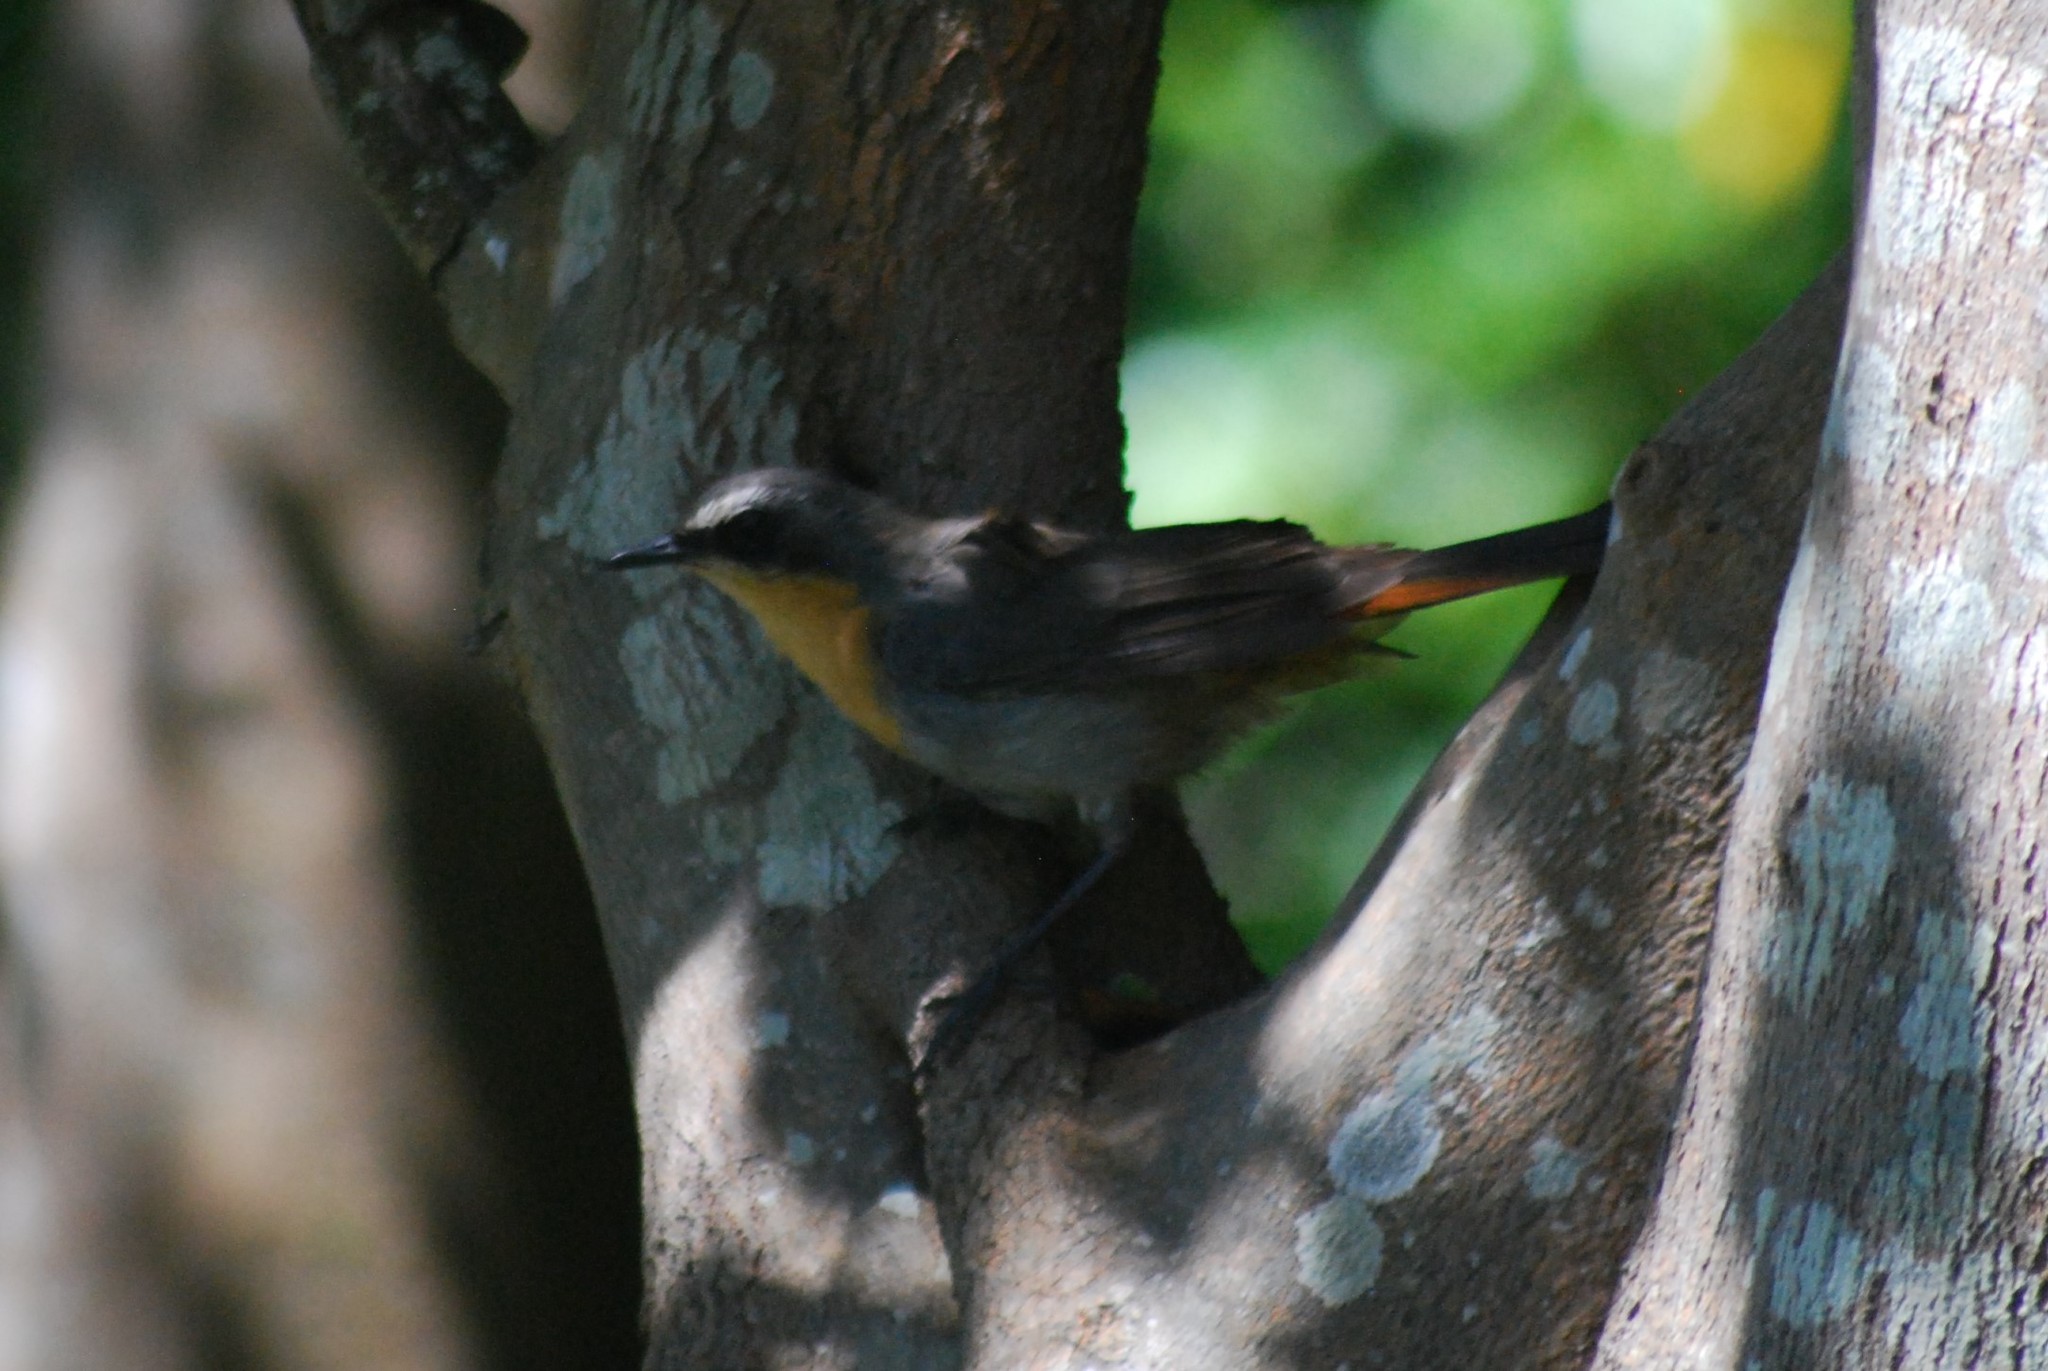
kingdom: Animalia
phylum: Chordata
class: Aves
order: Passeriformes
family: Muscicapidae
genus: Cossypha
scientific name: Cossypha caffra
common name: Cape robin-chat
